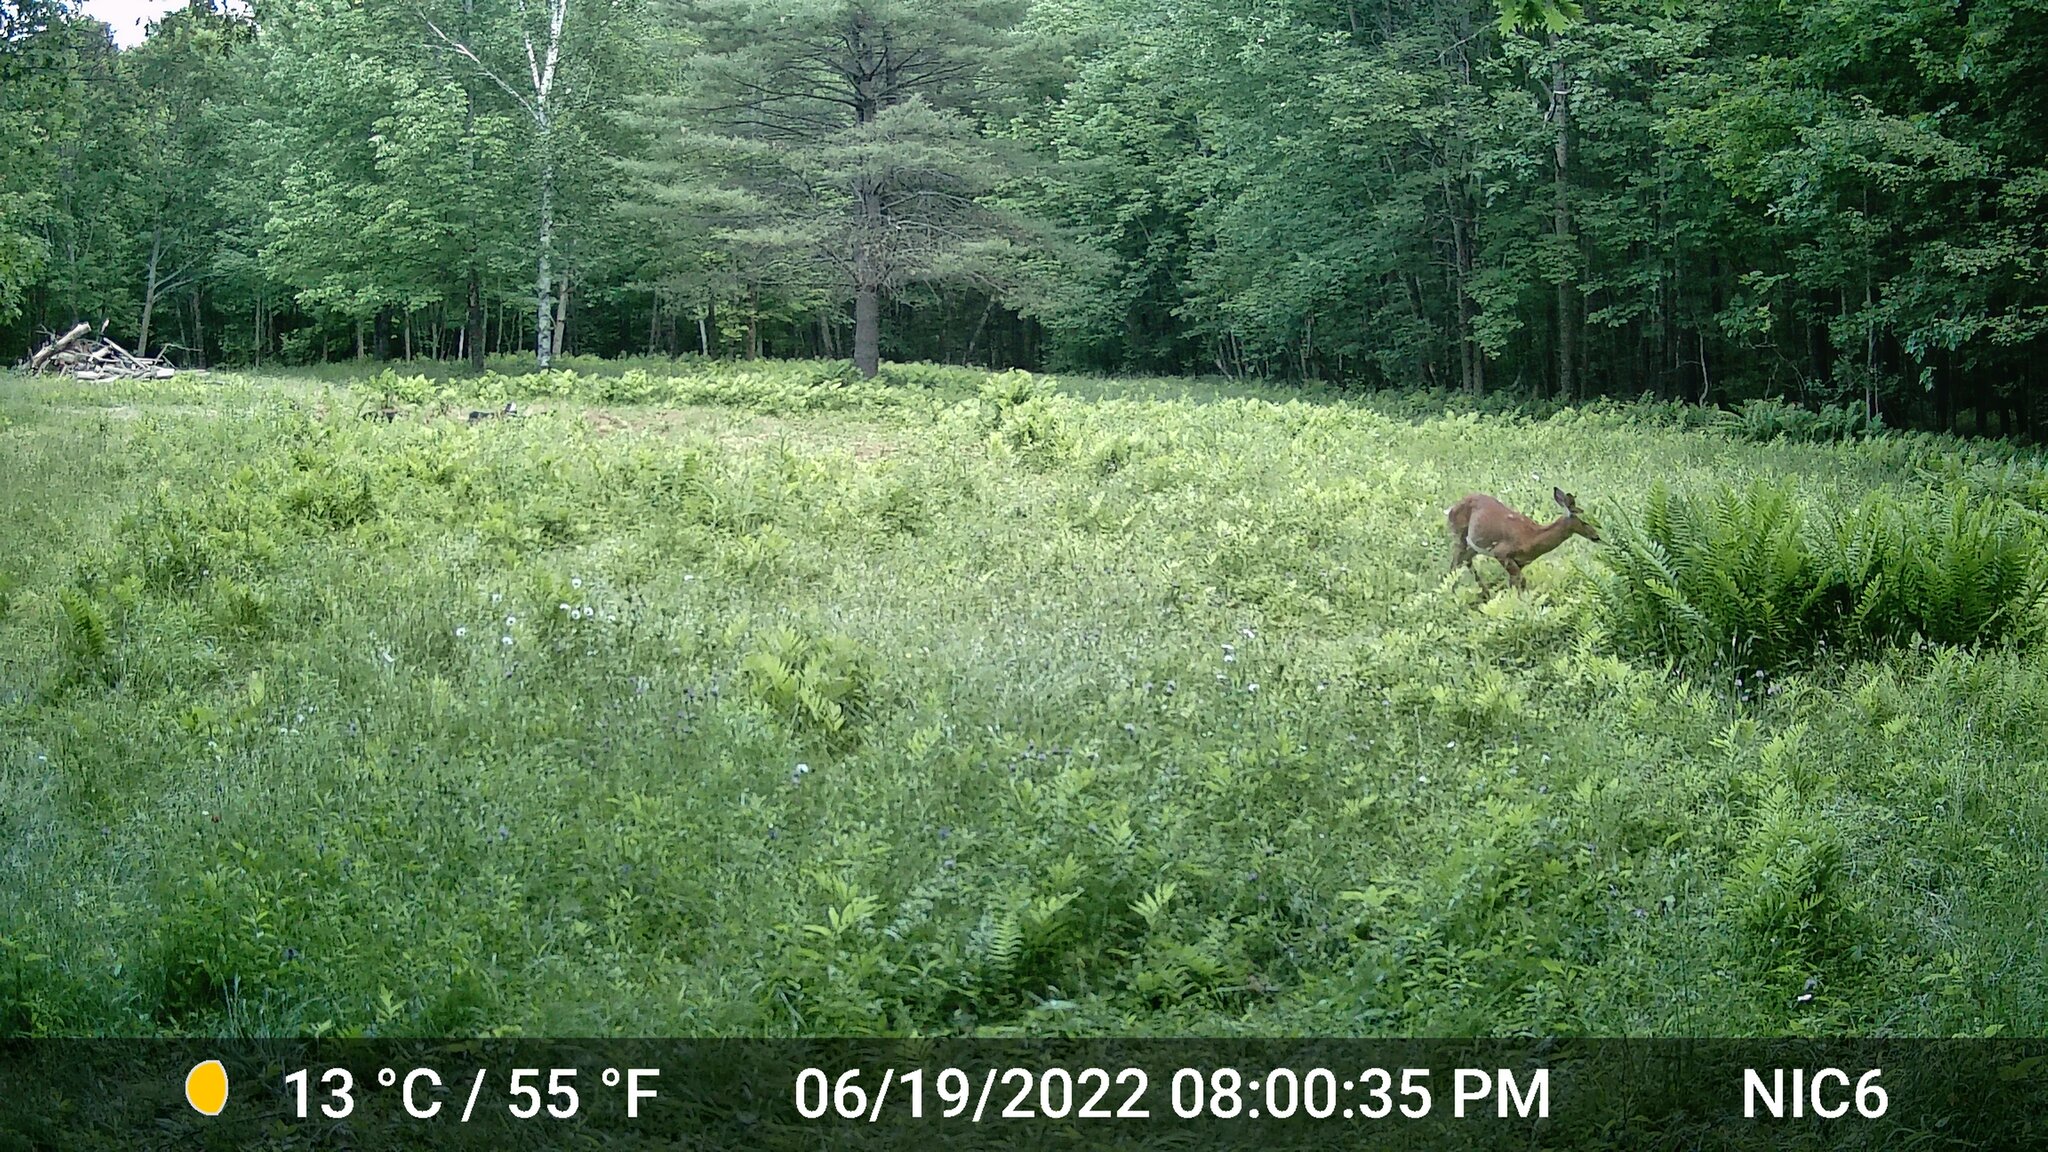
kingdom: Animalia
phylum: Chordata
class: Mammalia
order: Artiodactyla
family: Cervidae
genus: Odocoileus
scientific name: Odocoileus virginianus
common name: White-tailed deer
